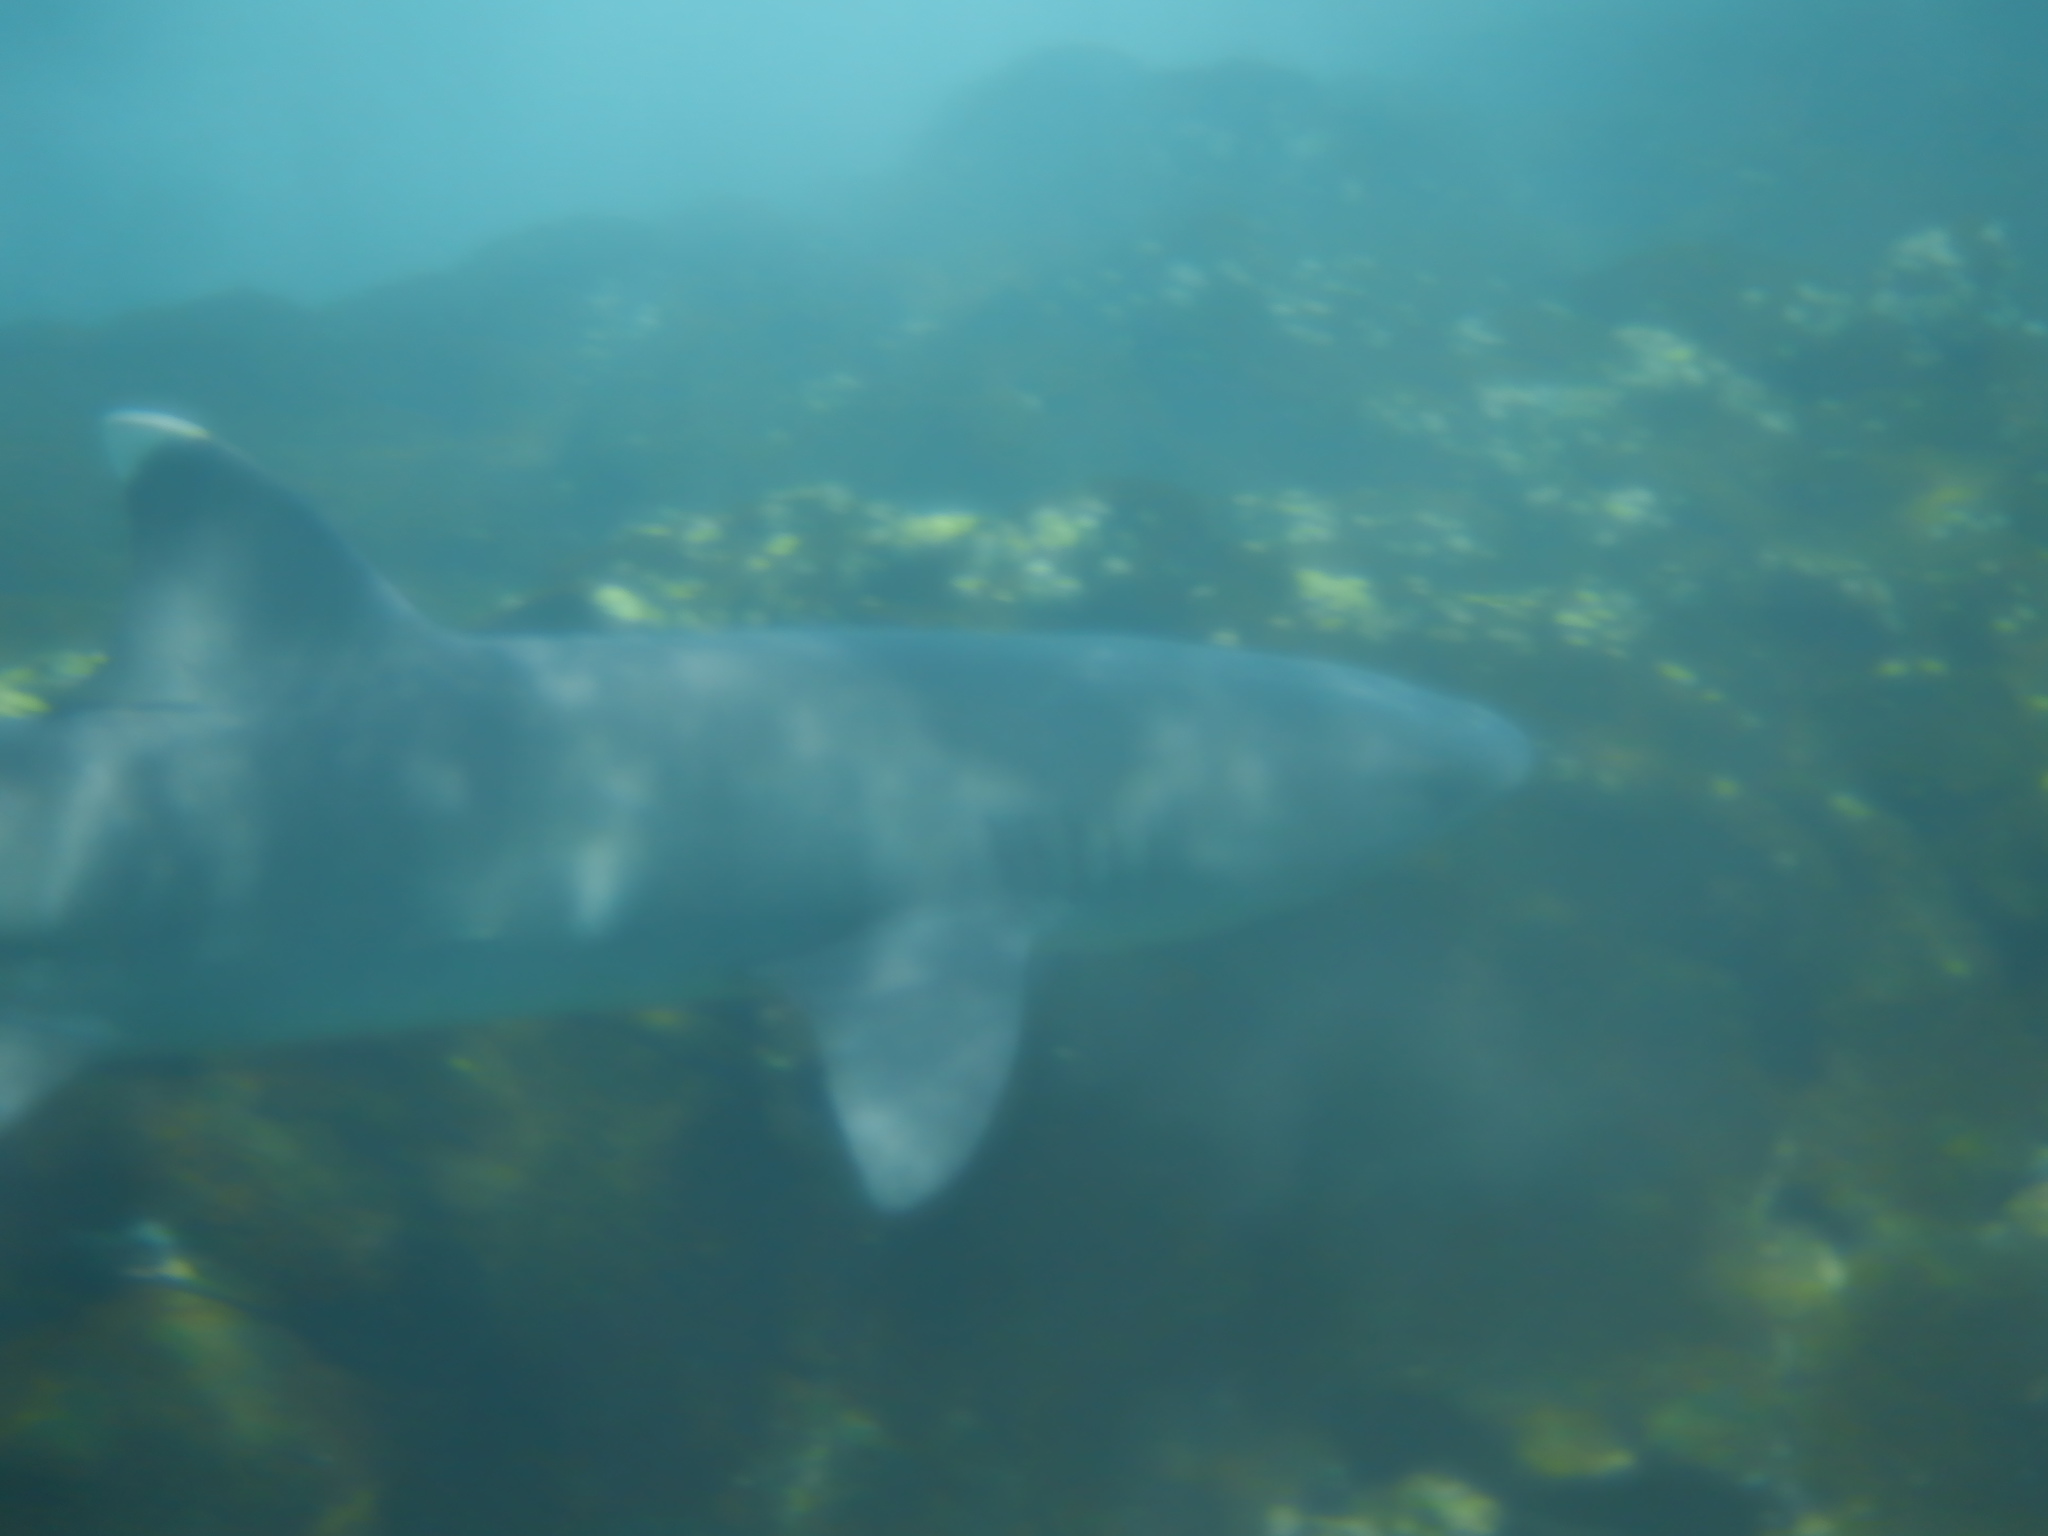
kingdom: Animalia
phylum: Chordata
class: Elasmobranchii
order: Carcharhiniformes
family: Carcharhinidae
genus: Triaenodon
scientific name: Triaenodon obesus
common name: Whitetip reef shark
